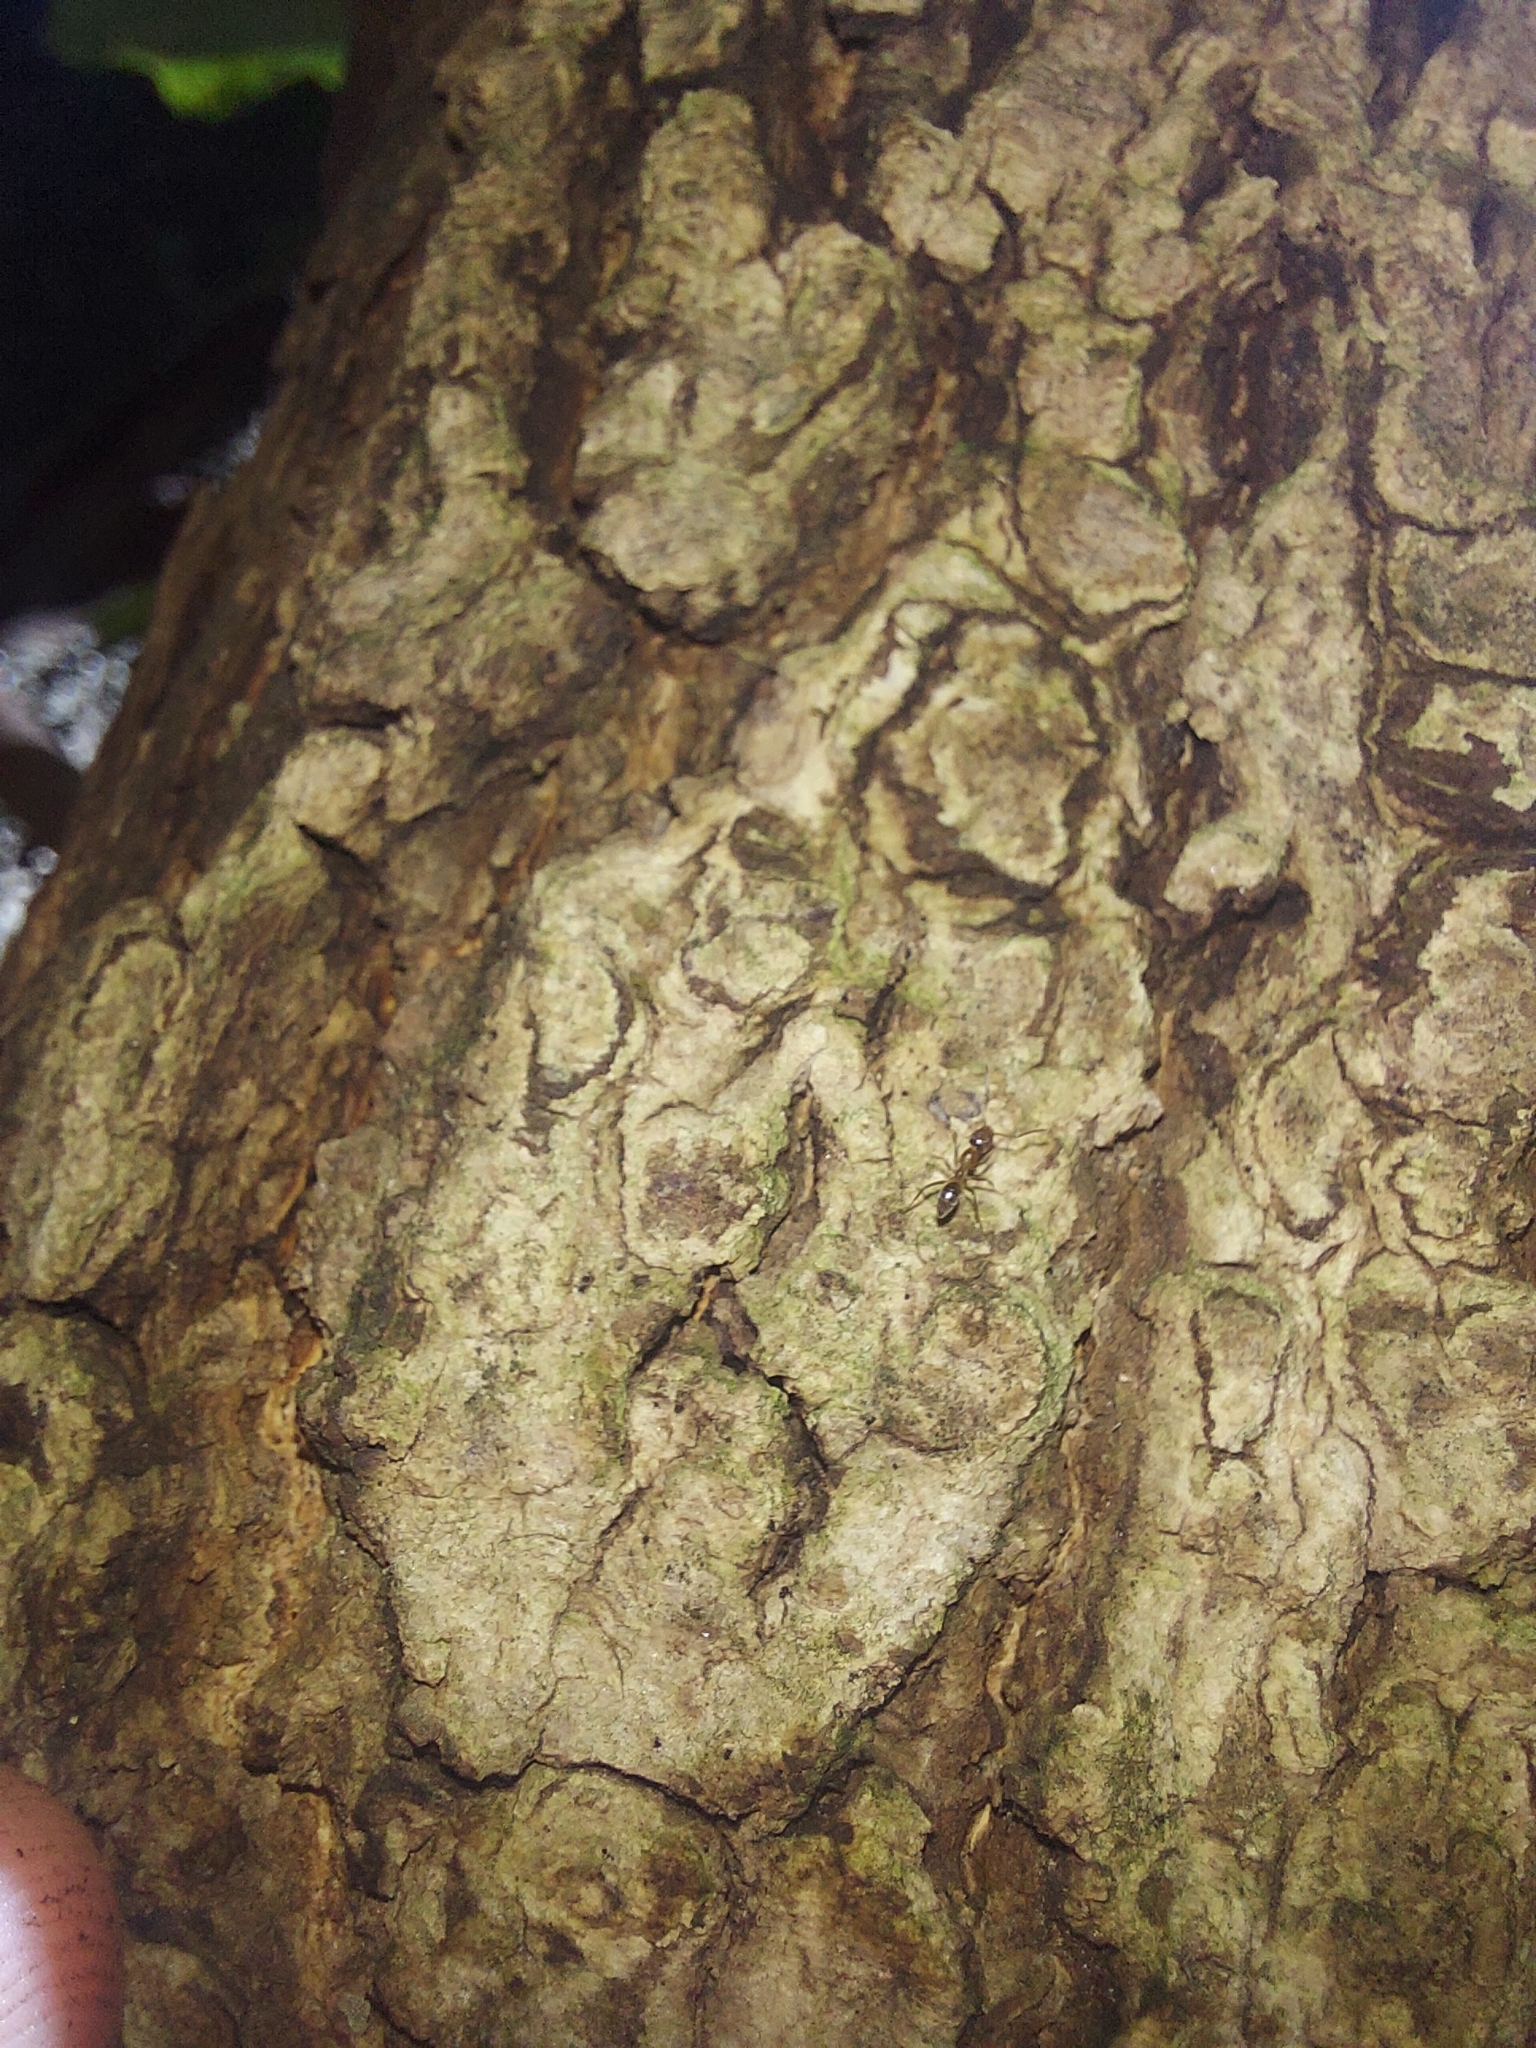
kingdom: Animalia
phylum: Arthropoda
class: Insecta
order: Hymenoptera
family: Formicidae
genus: Linepithema
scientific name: Linepithema humile
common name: Argentine ant
